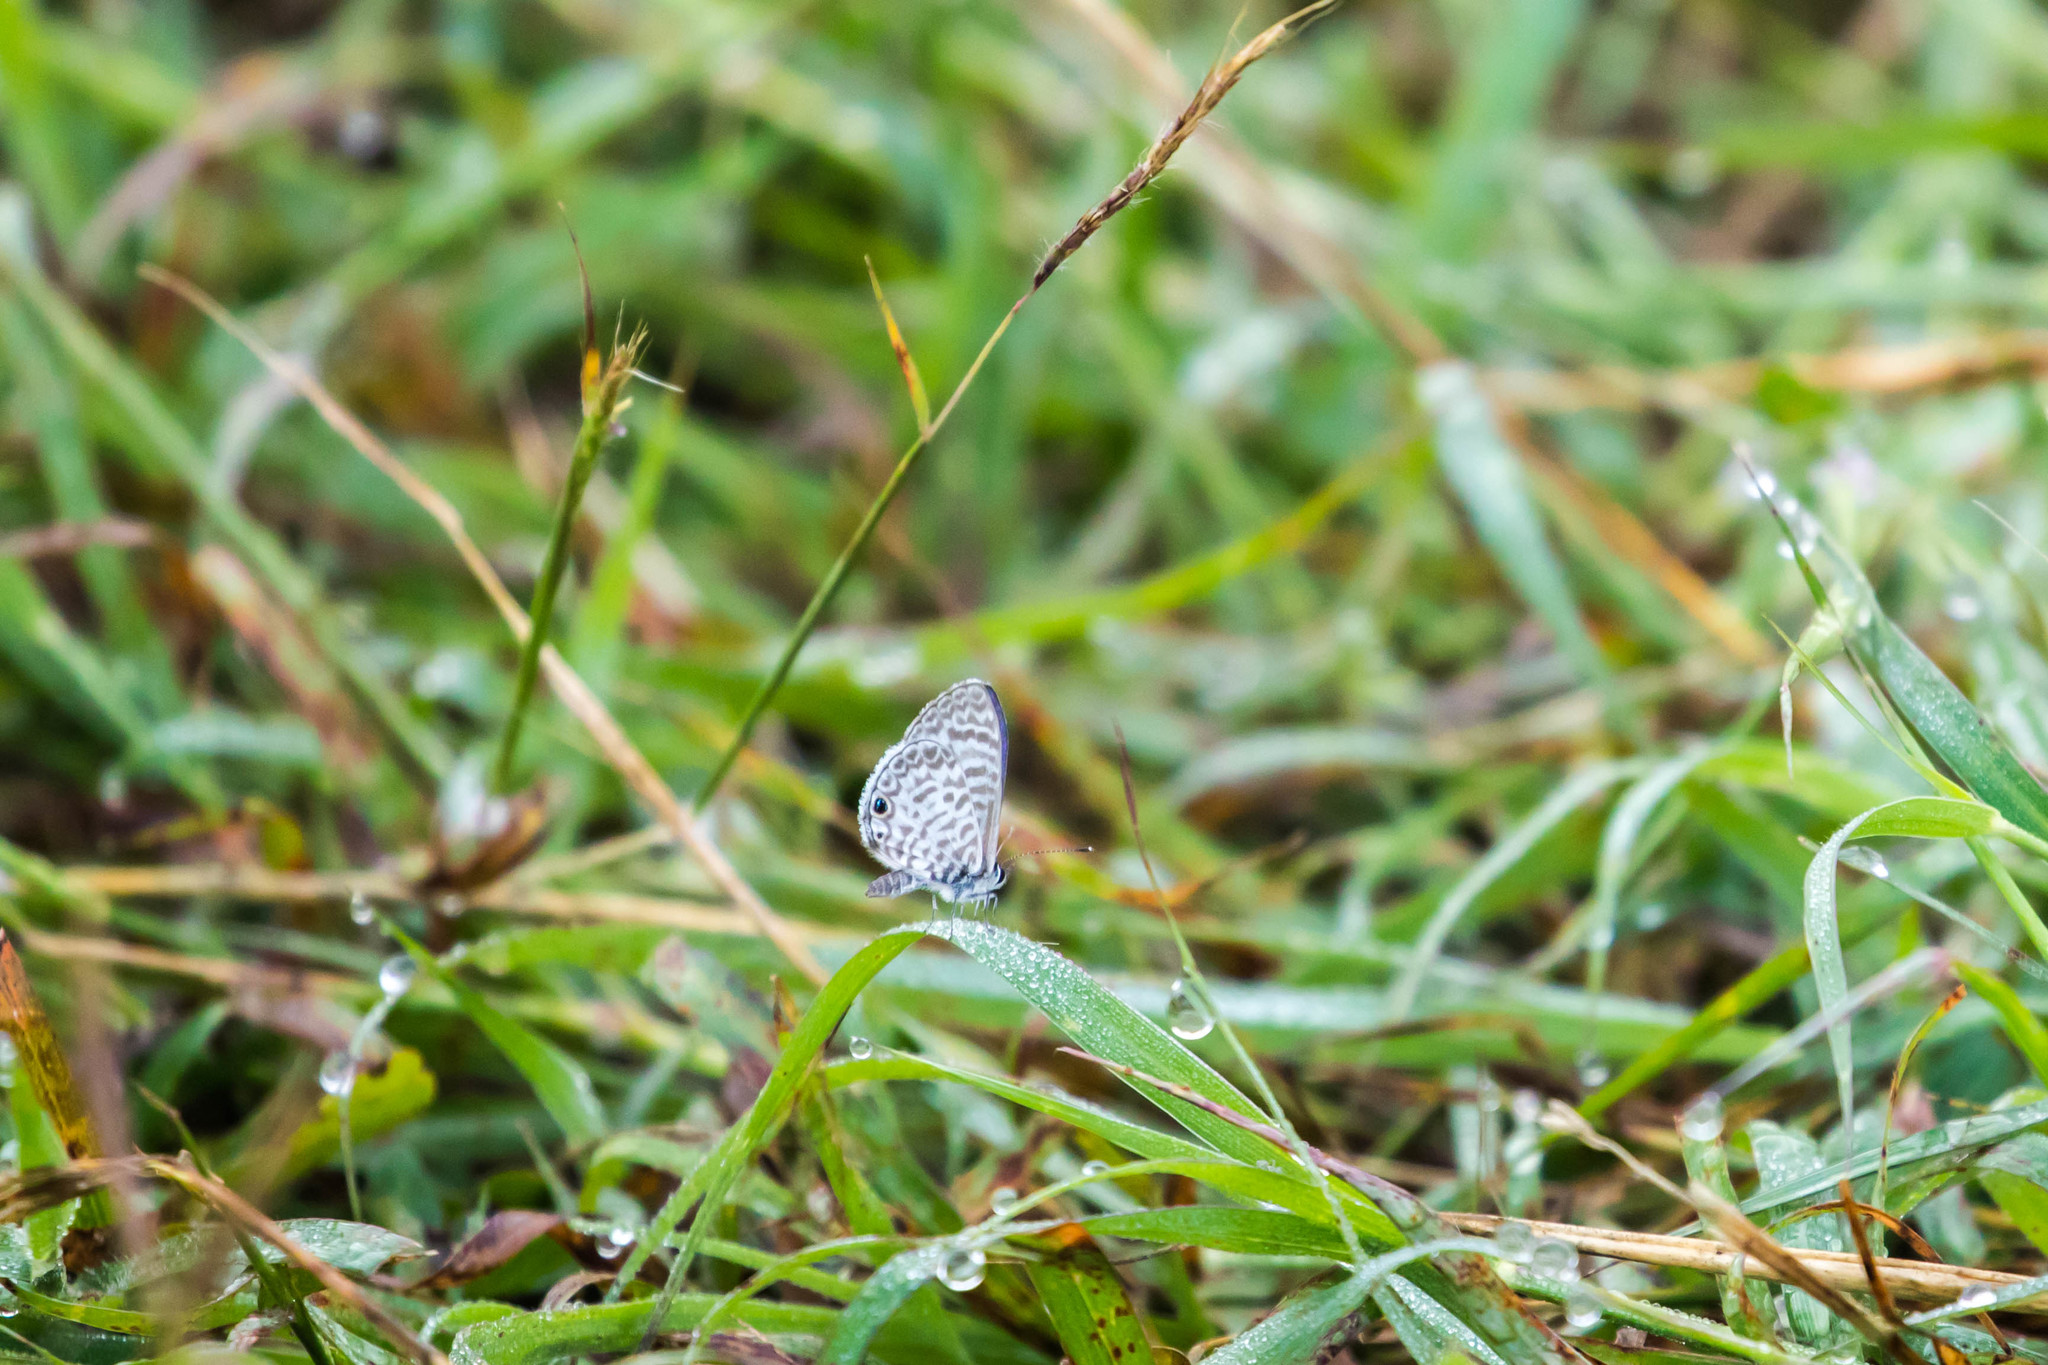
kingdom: Animalia
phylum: Arthropoda
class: Insecta
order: Lepidoptera
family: Lycaenidae
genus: Leptotes
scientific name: Leptotes cassius
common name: Cassius blue
